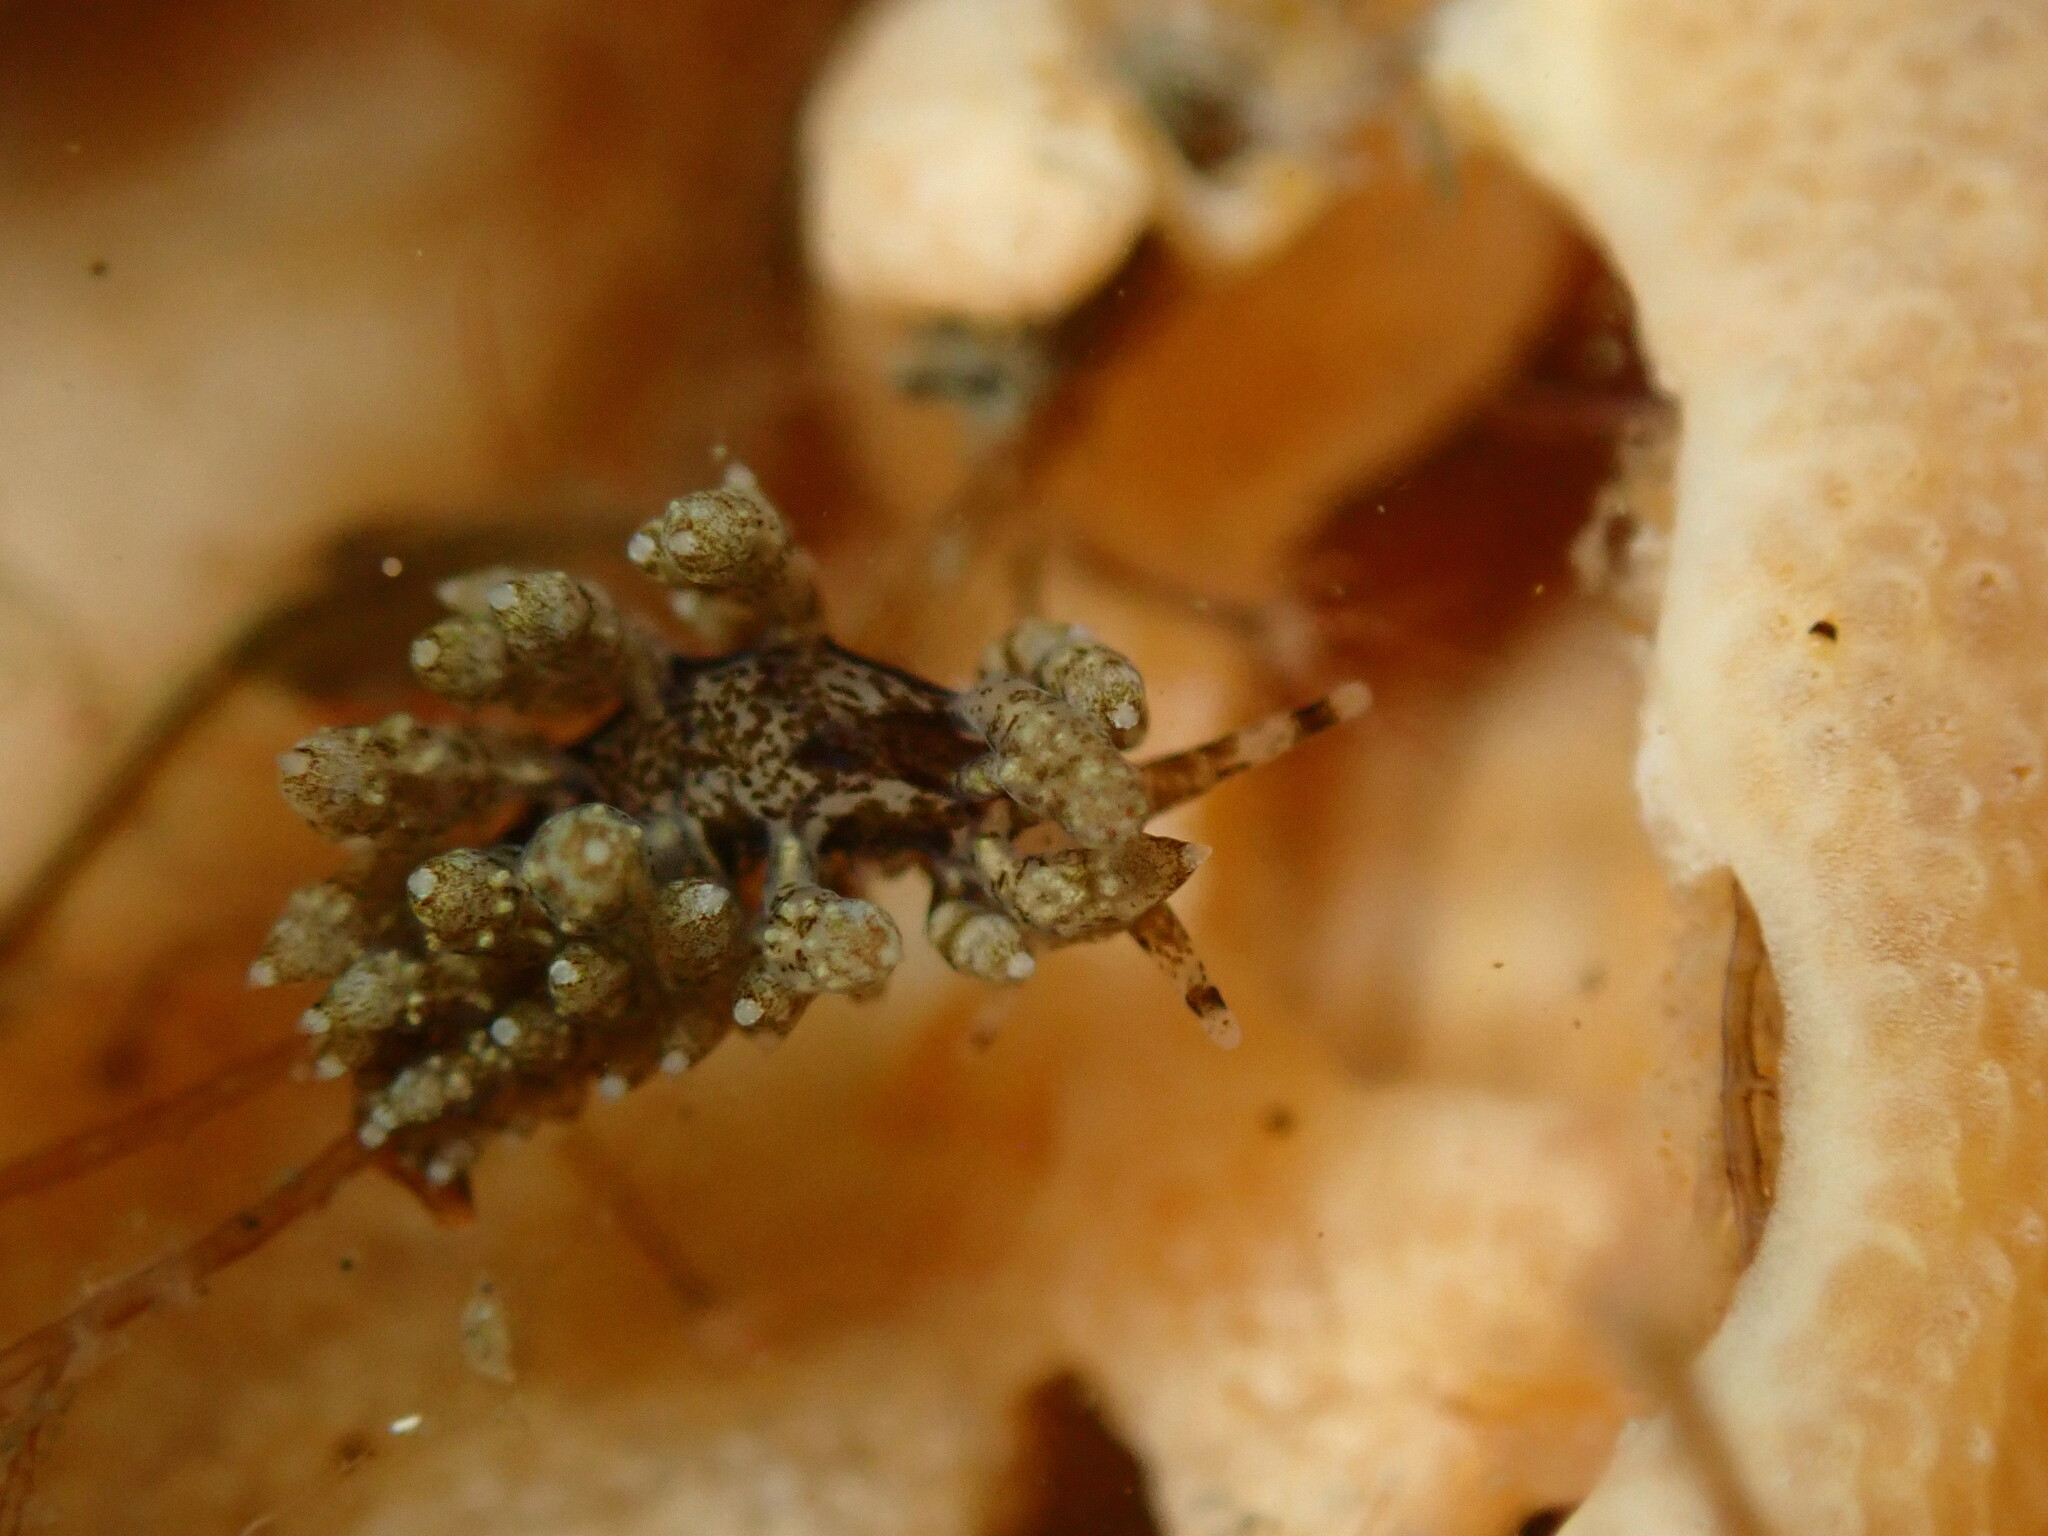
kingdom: Animalia
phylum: Mollusca
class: Gastropoda
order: Nudibranchia
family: Eubranchidae
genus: Eubranchus
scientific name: Eubranchus rustyus
